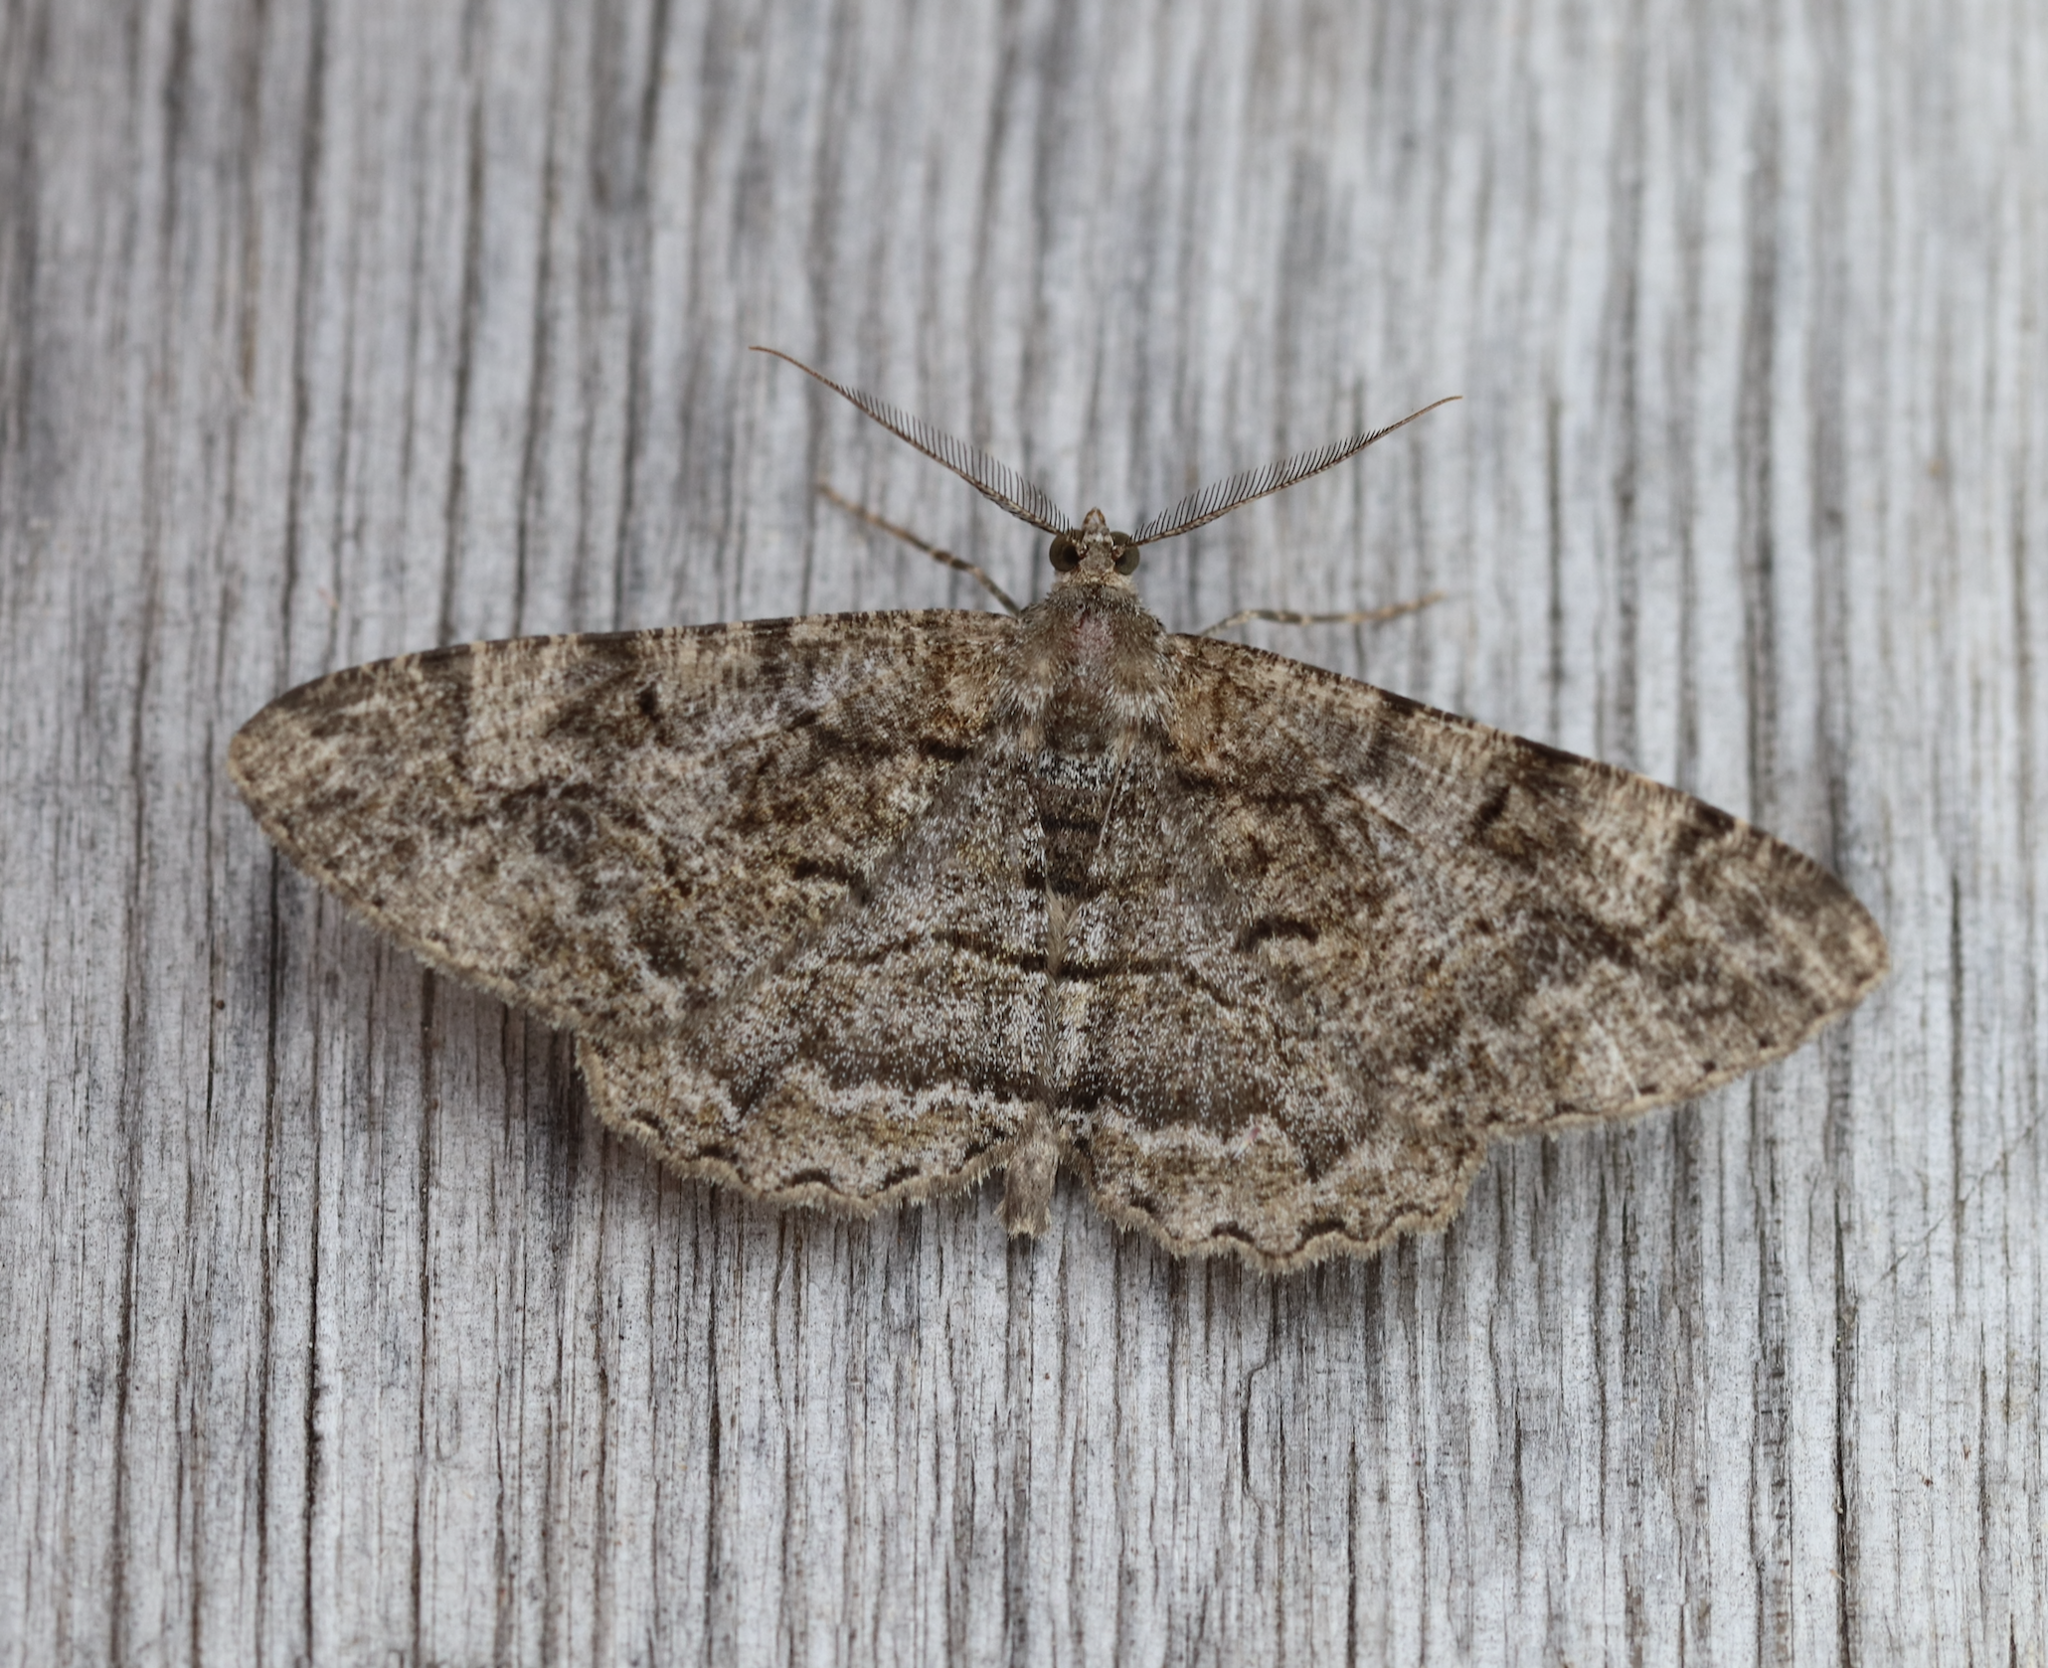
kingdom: Animalia
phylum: Arthropoda
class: Insecta
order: Lepidoptera
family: Geometridae
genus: Alcis
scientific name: Alcis repandata
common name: Mottled beauty
